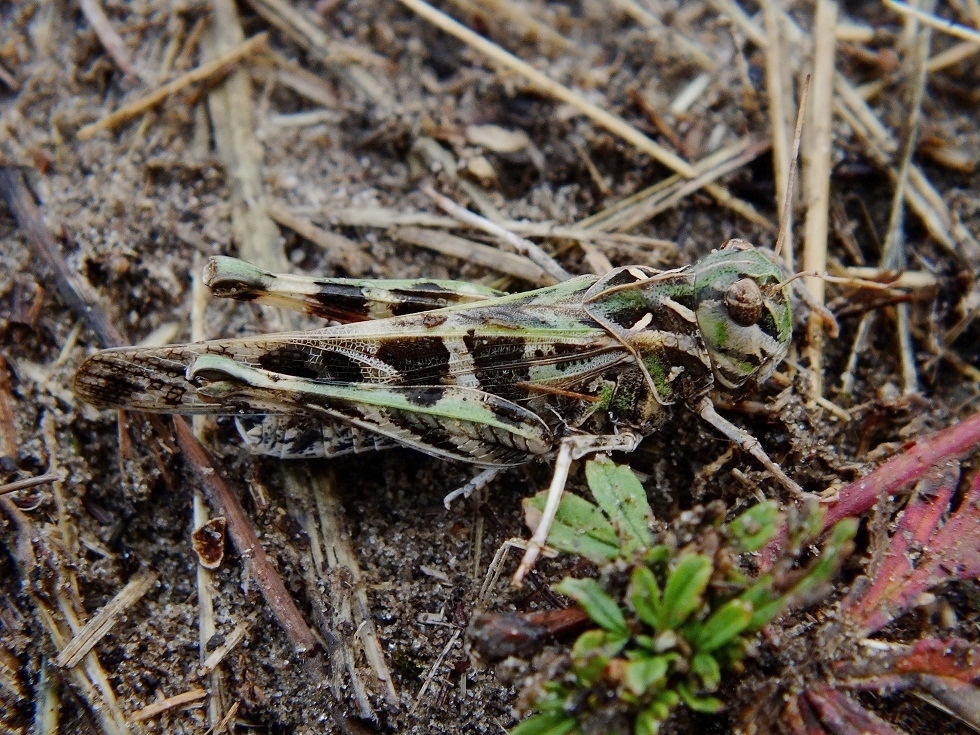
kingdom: Animalia
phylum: Arthropoda
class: Insecta
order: Orthoptera
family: Acrididae
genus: Oedaleus
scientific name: Oedaleus decorus
